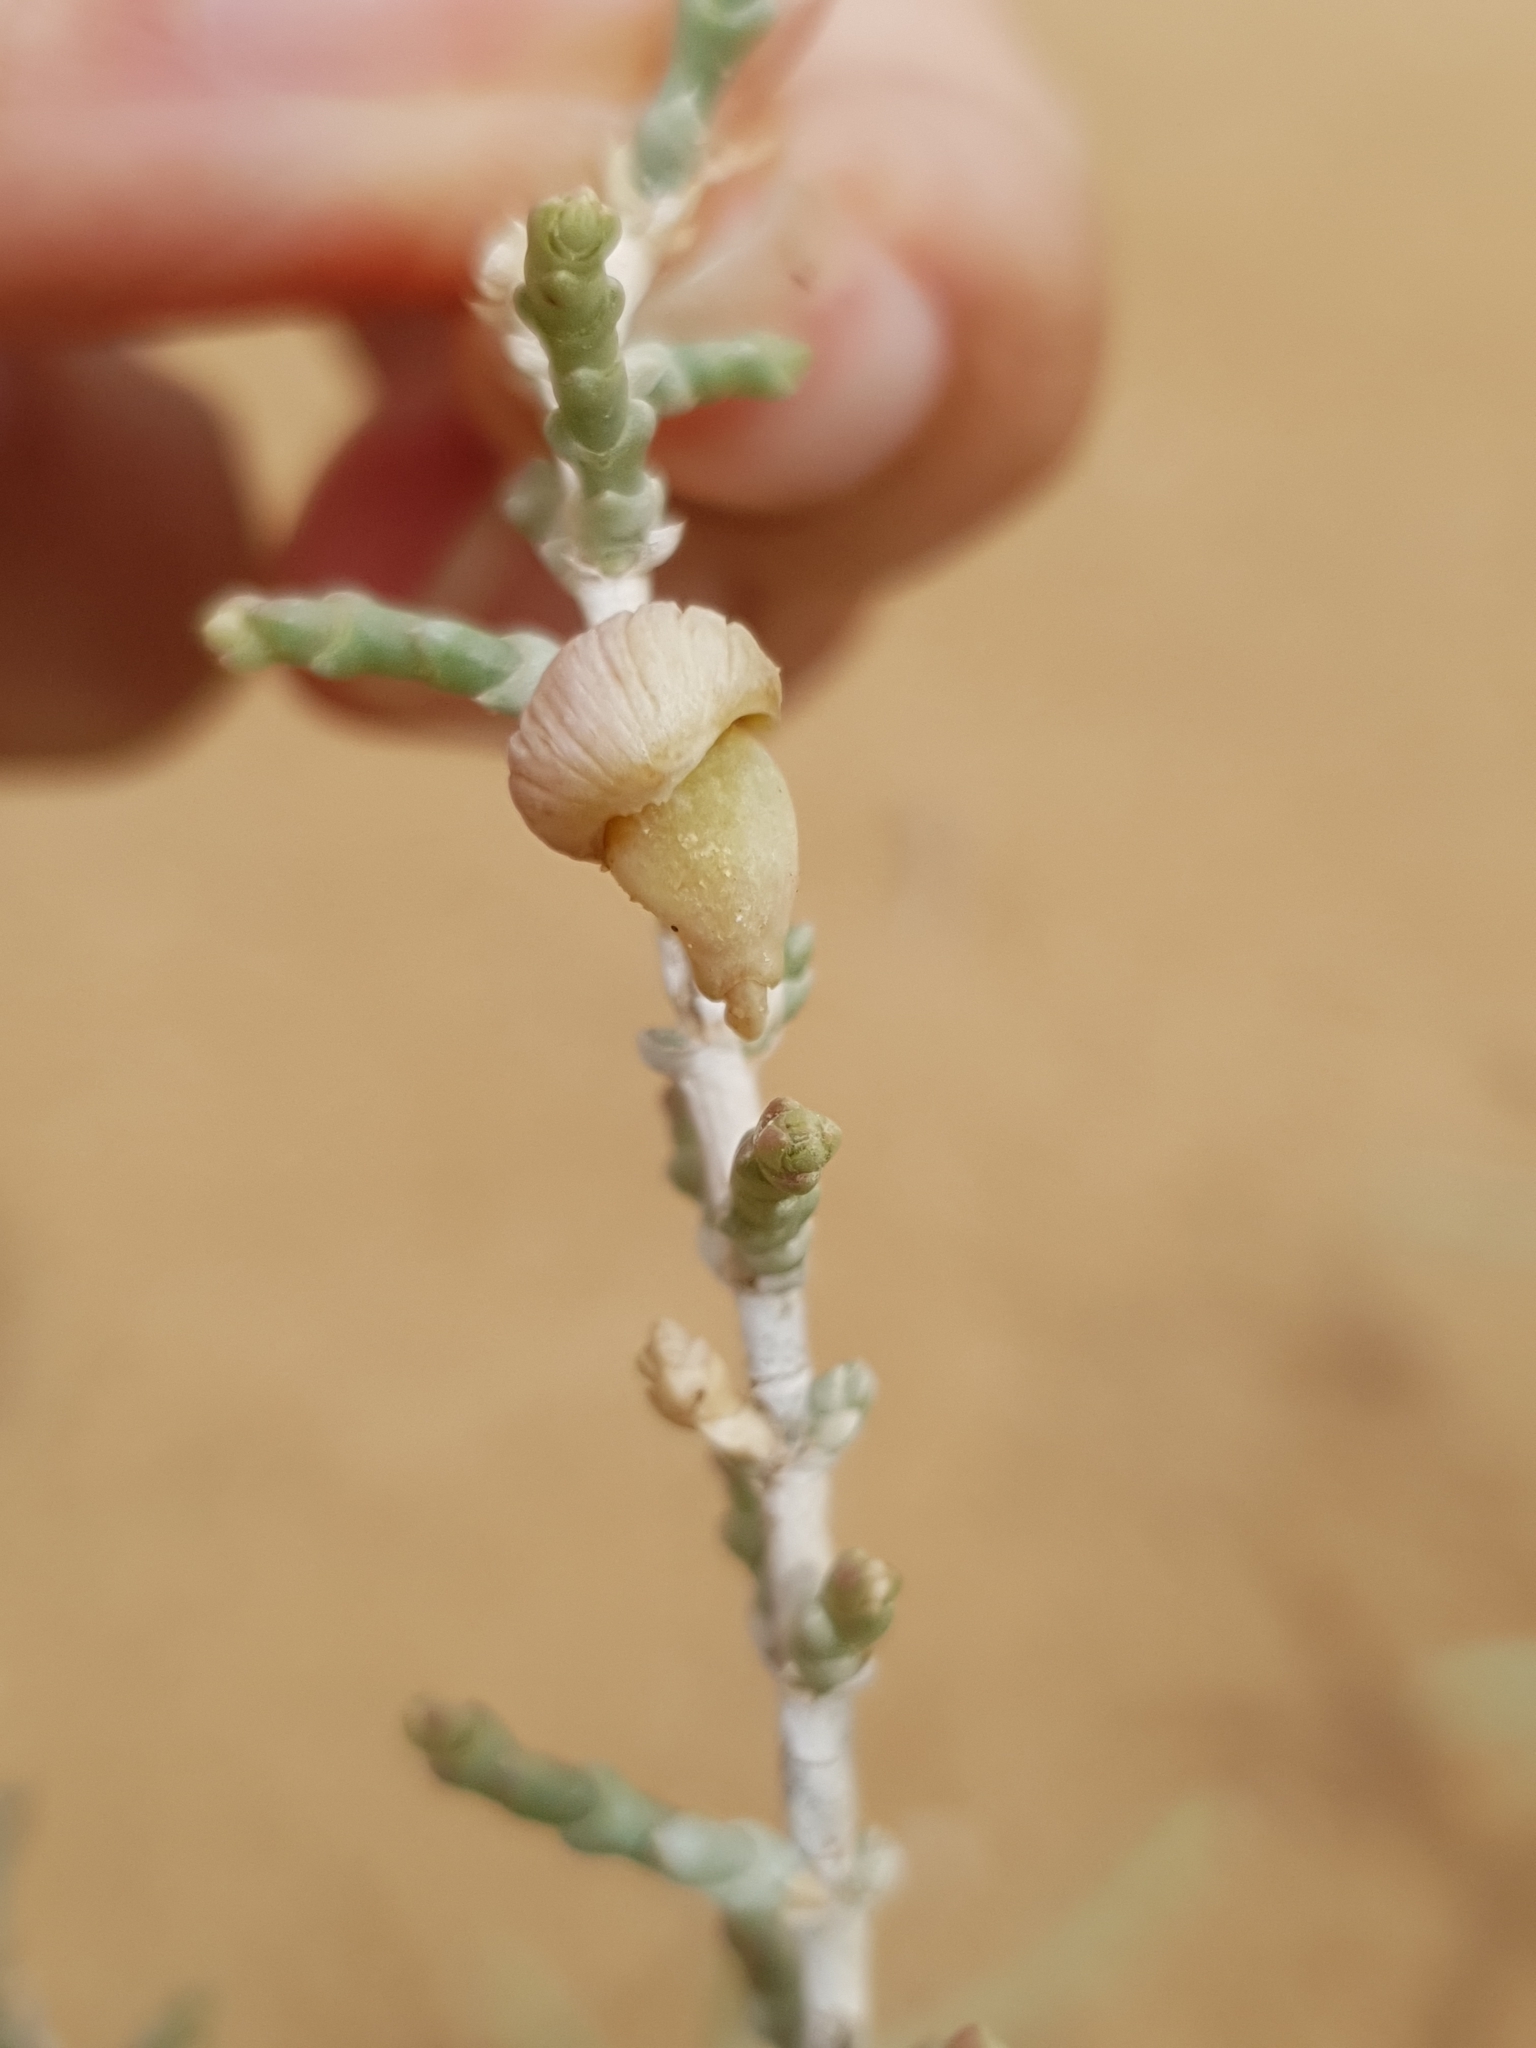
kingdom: Plantae
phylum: Tracheophyta
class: Magnoliopsida
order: Caryophyllales
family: Amaranthaceae
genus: Haloxylon
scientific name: Haloxylon schmittianum
